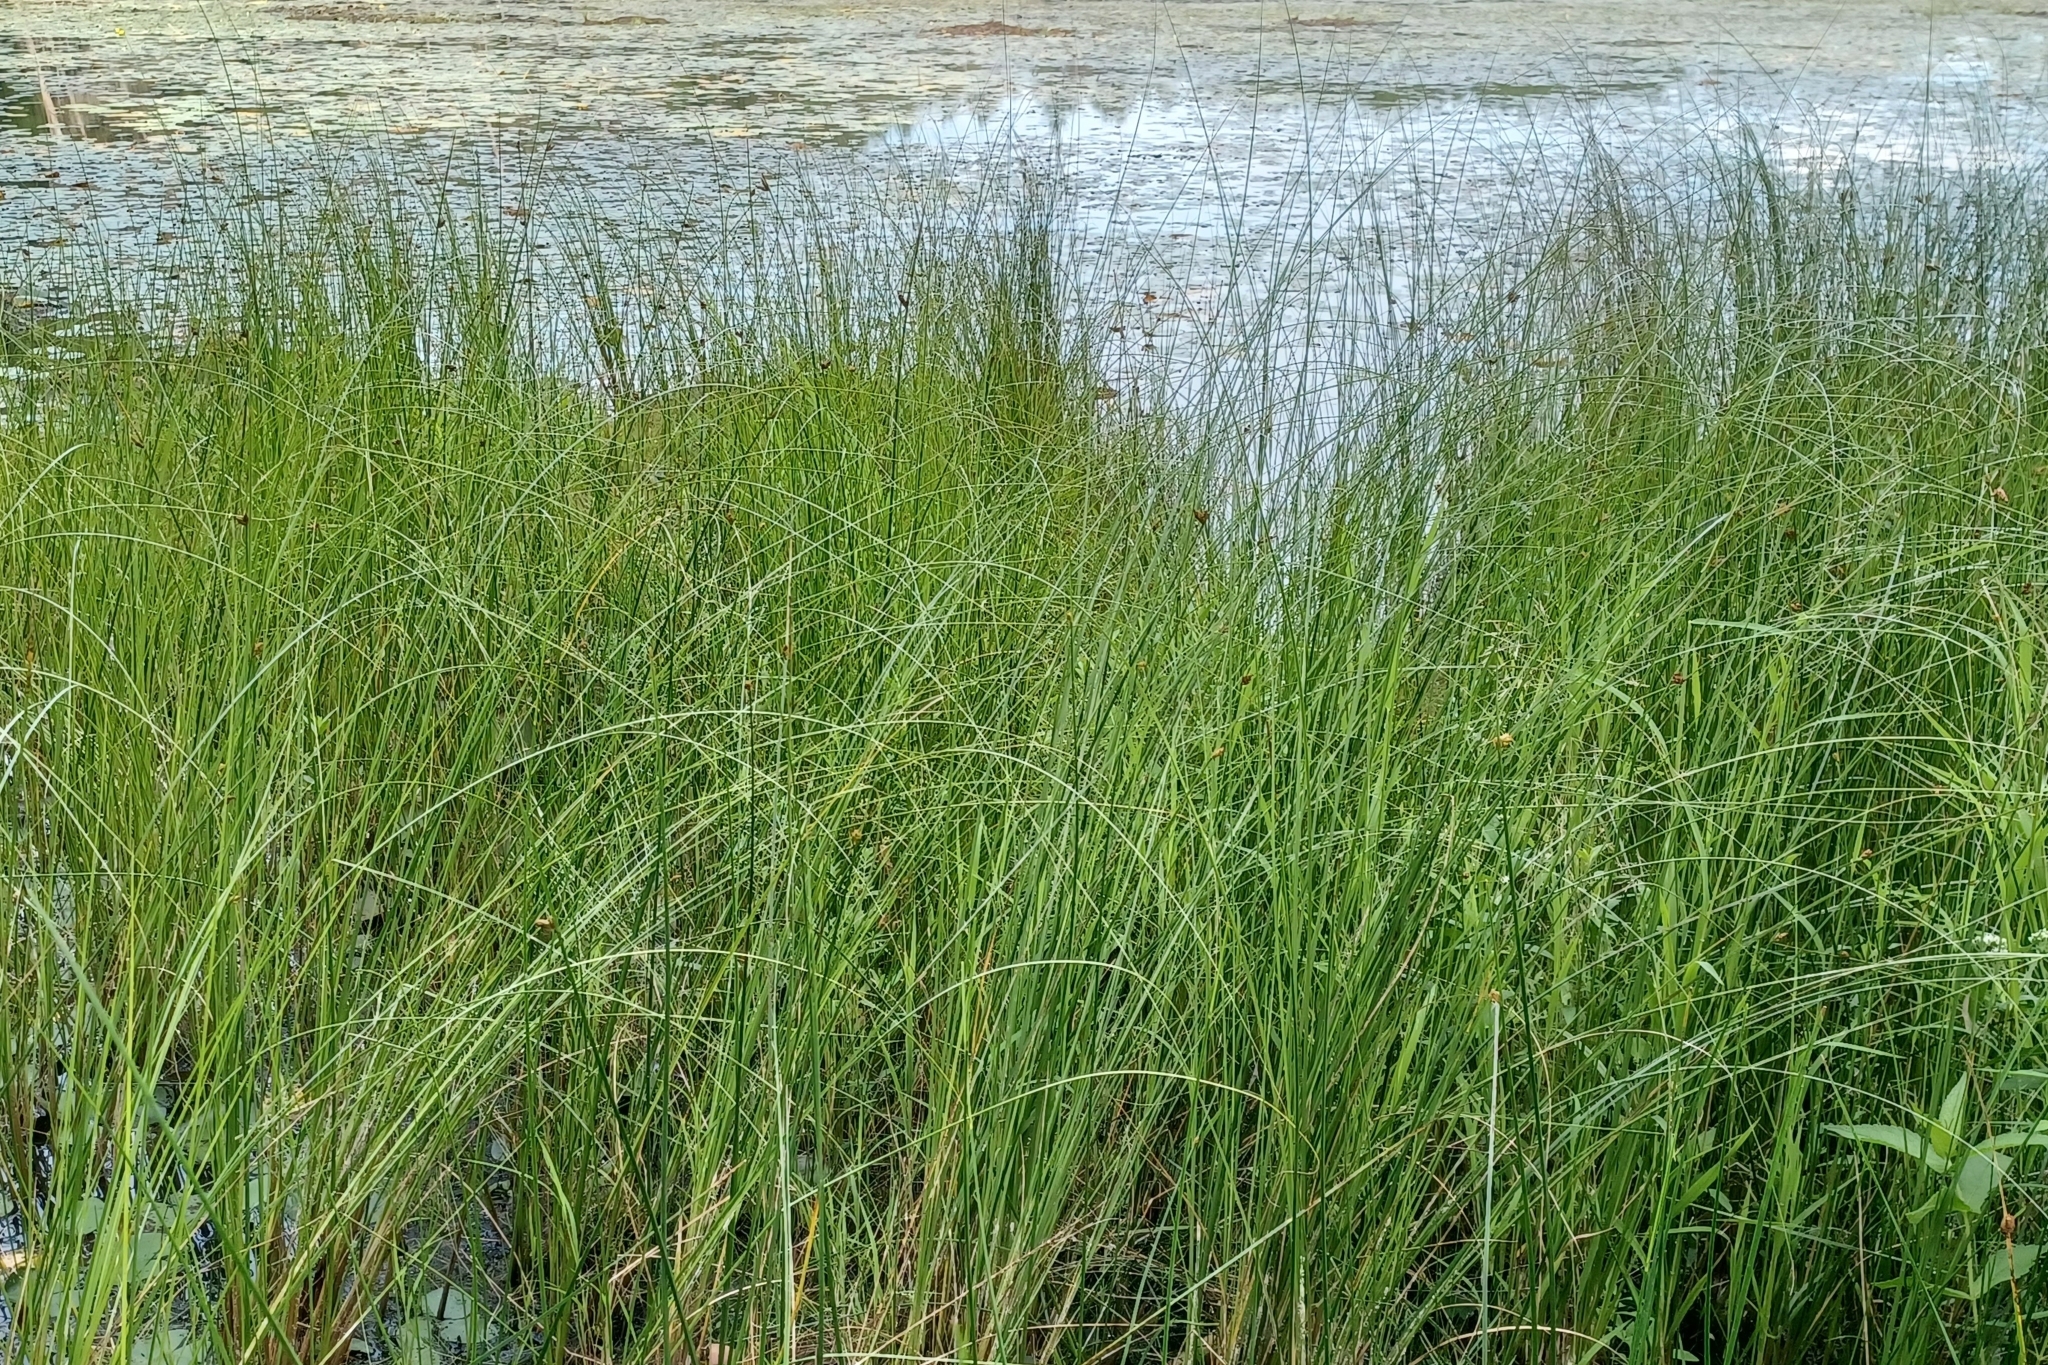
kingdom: Plantae
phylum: Tracheophyta
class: Liliopsida
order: Poales
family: Cyperaceae
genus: Schoenoplectus
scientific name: Schoenoplectus torreyi
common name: Torrey's bulrush
